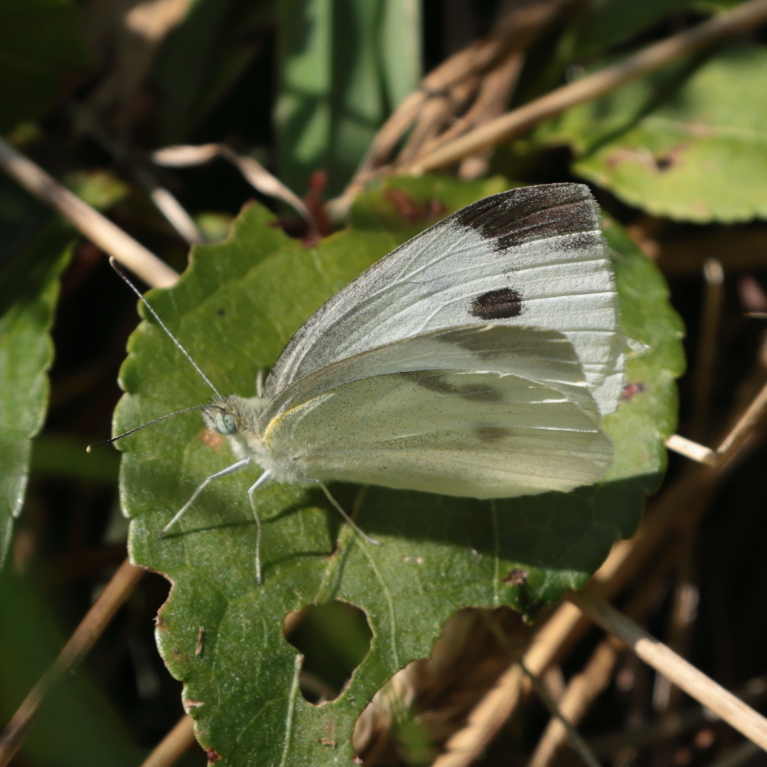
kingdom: Animalia
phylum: Arthropoda
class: Insecta
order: Lepidoptera
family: Pieridae
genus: Pieris
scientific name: Pieris rapae
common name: Small white
